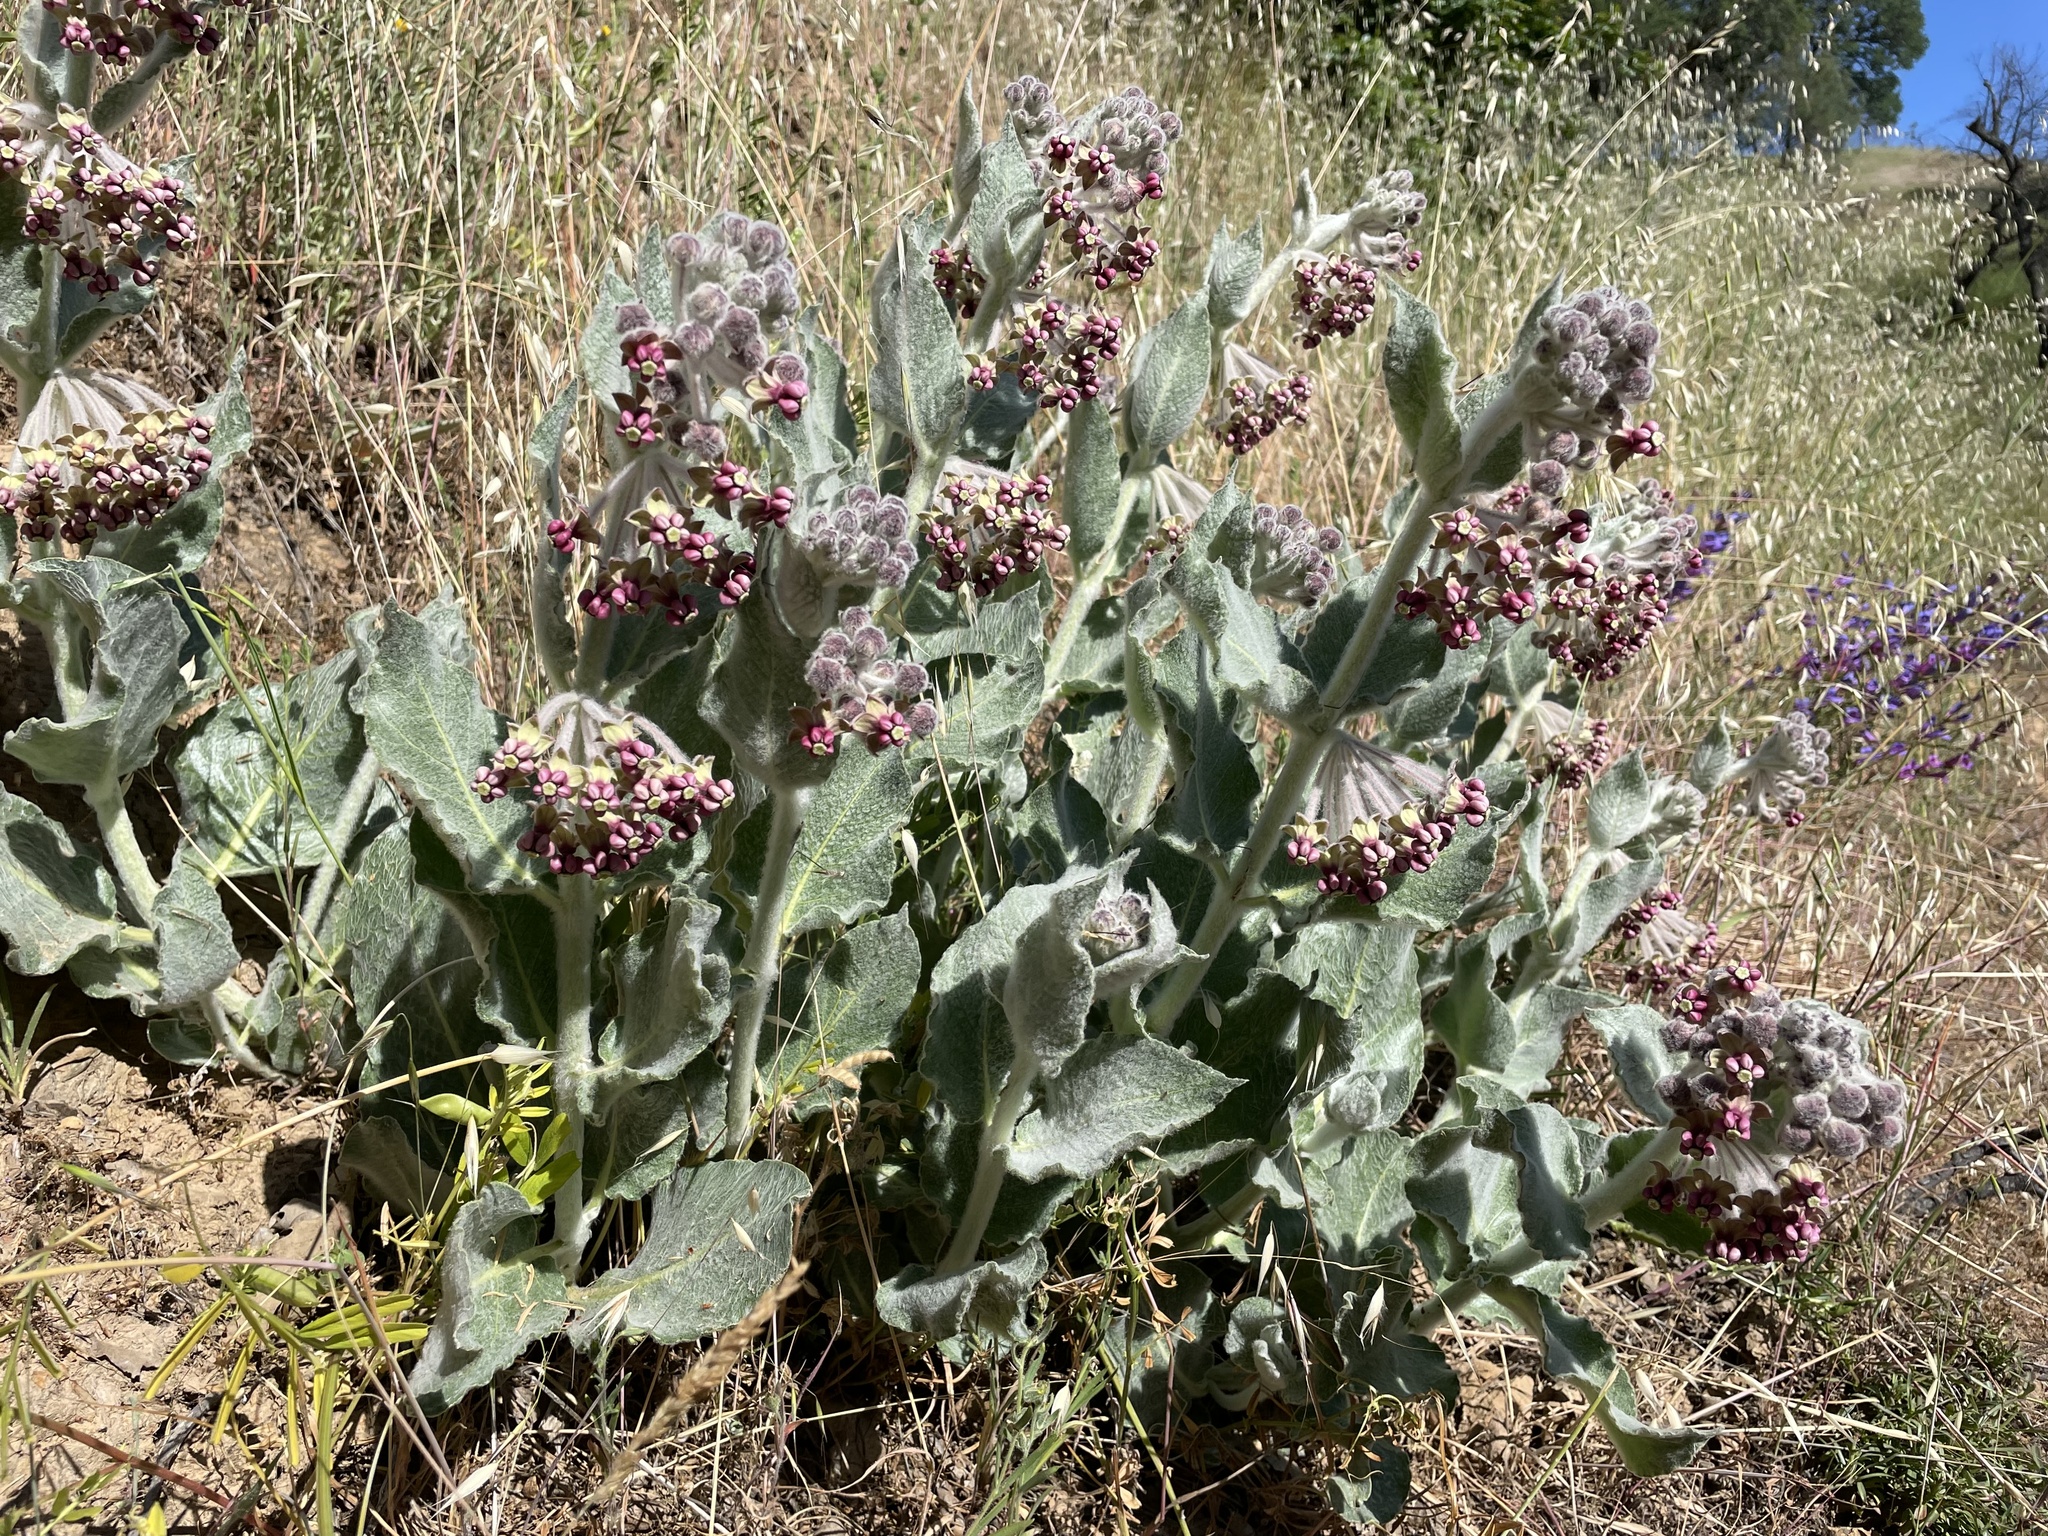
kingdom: Plantae
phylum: Tracheophyta
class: Magnoliopsida
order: Gentianales
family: Apocynaceae
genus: Asclepias
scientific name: Asclepias californica
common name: California milkweed
